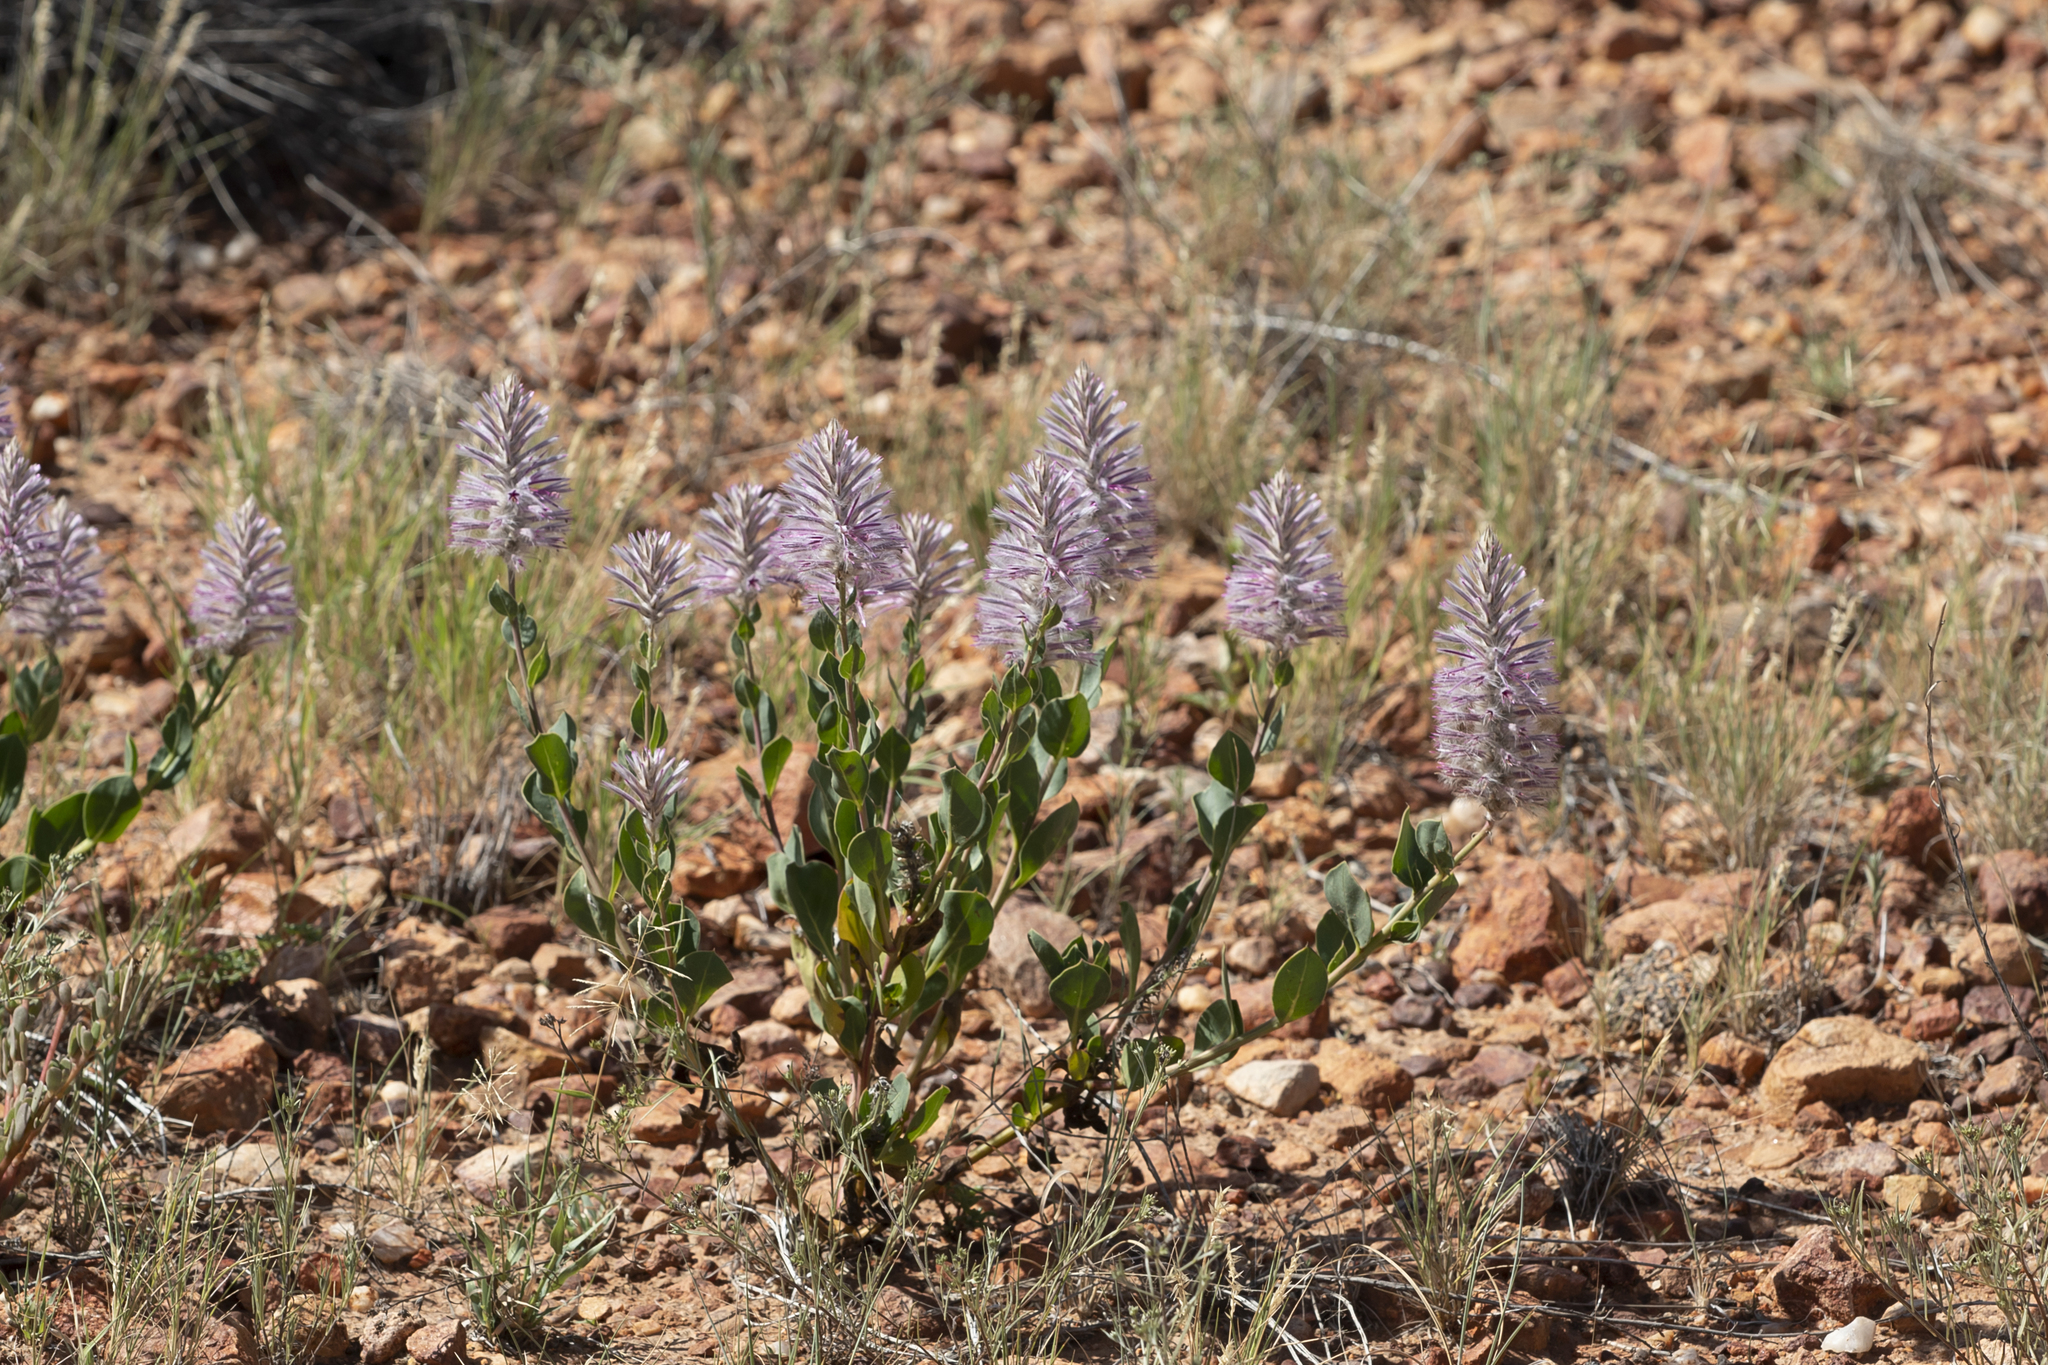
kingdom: Plantae
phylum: Tracheophyta
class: Magnoliopsida
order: Caryophyllales
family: Amaranthaceae
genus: Ptilotus
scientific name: Ptilotus exaltatus
